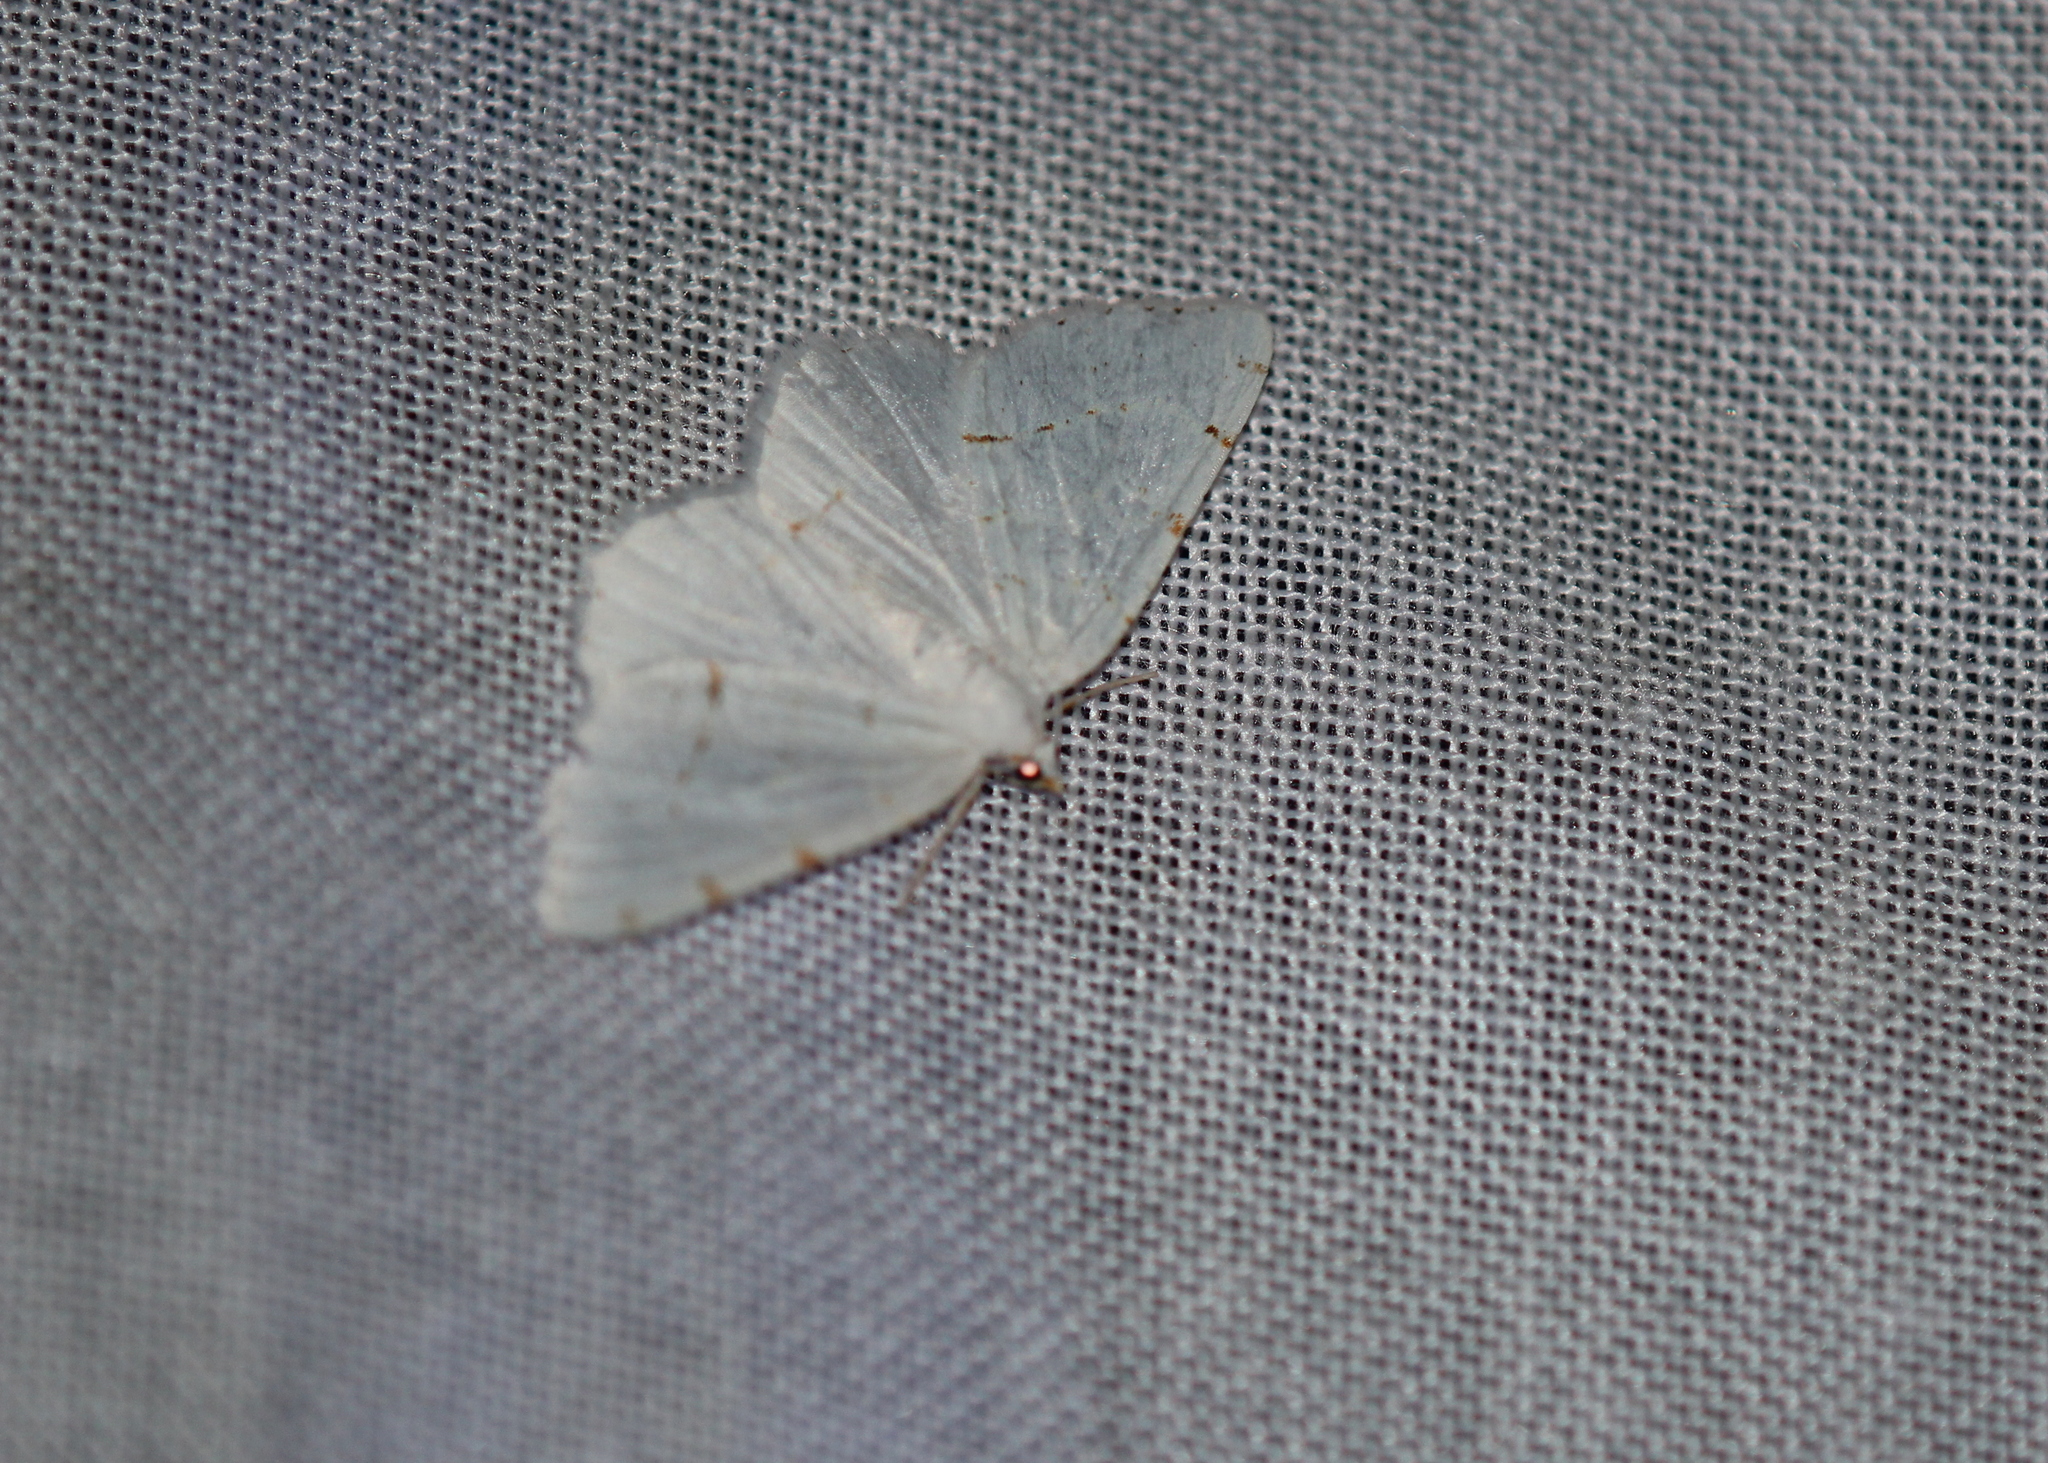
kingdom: Animalia
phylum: Arthropoda
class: Insecta
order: Lepidoptera
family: Geometridae
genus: Macaria
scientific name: Macaria pustularia
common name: Lesser maple spanworm moth
